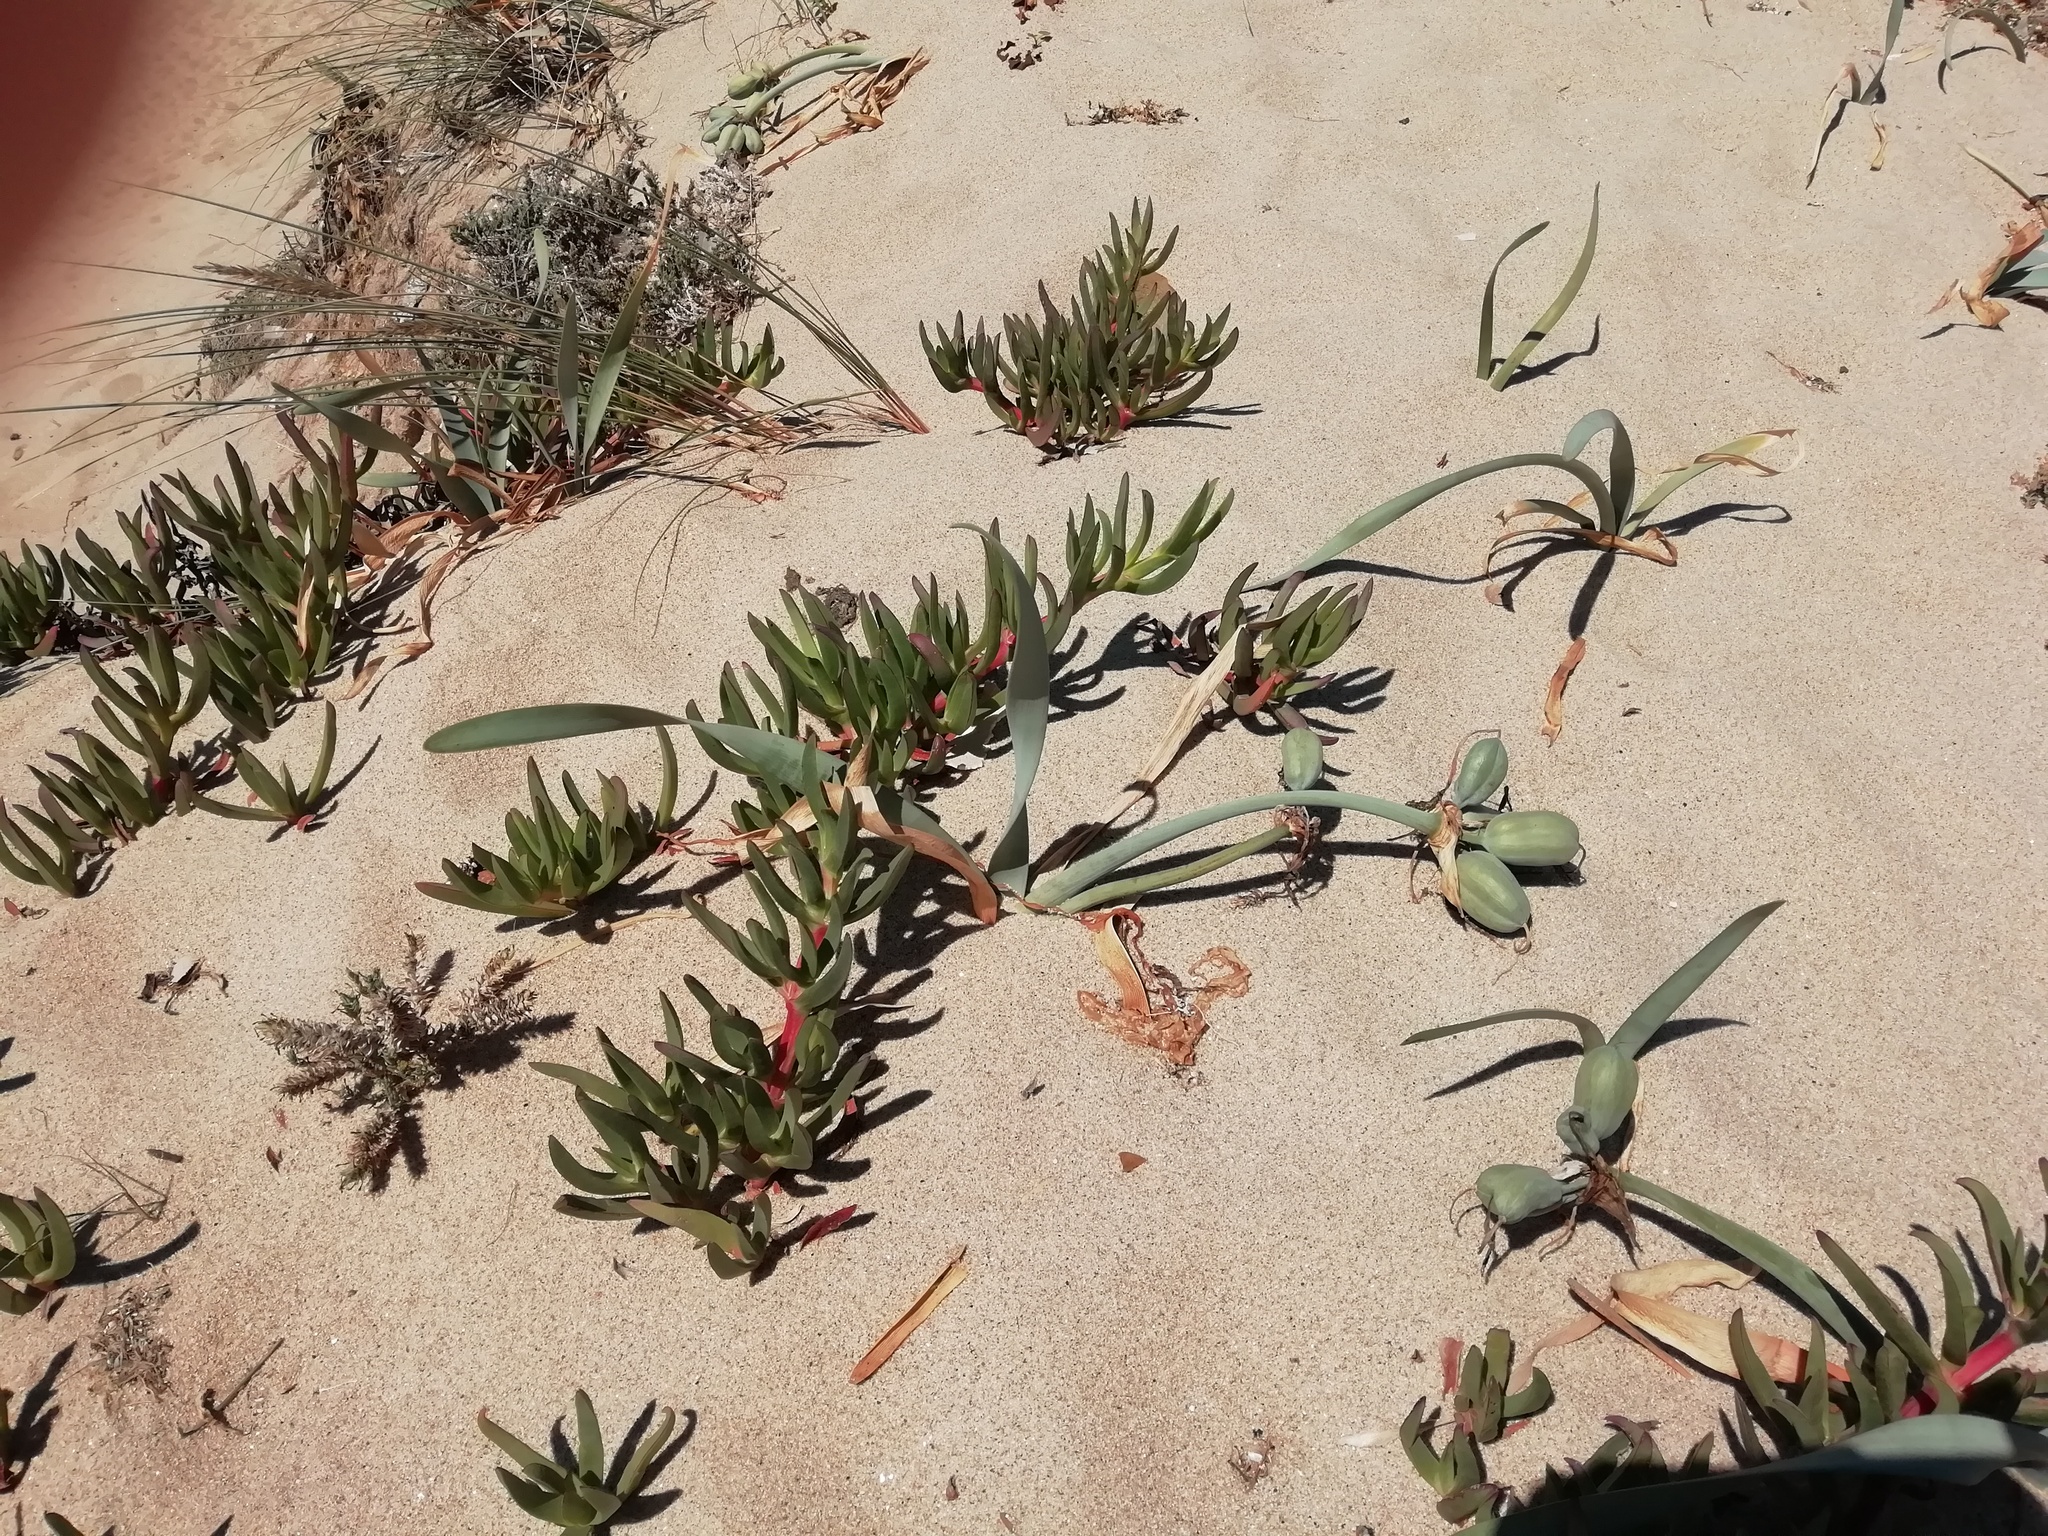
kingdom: Plantae
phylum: Tracheophyta
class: Liliopsida
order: Asparagales
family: Amaryllidaceae
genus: Pancratium
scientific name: Pancratium maritimum
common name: Sea-daffodil
